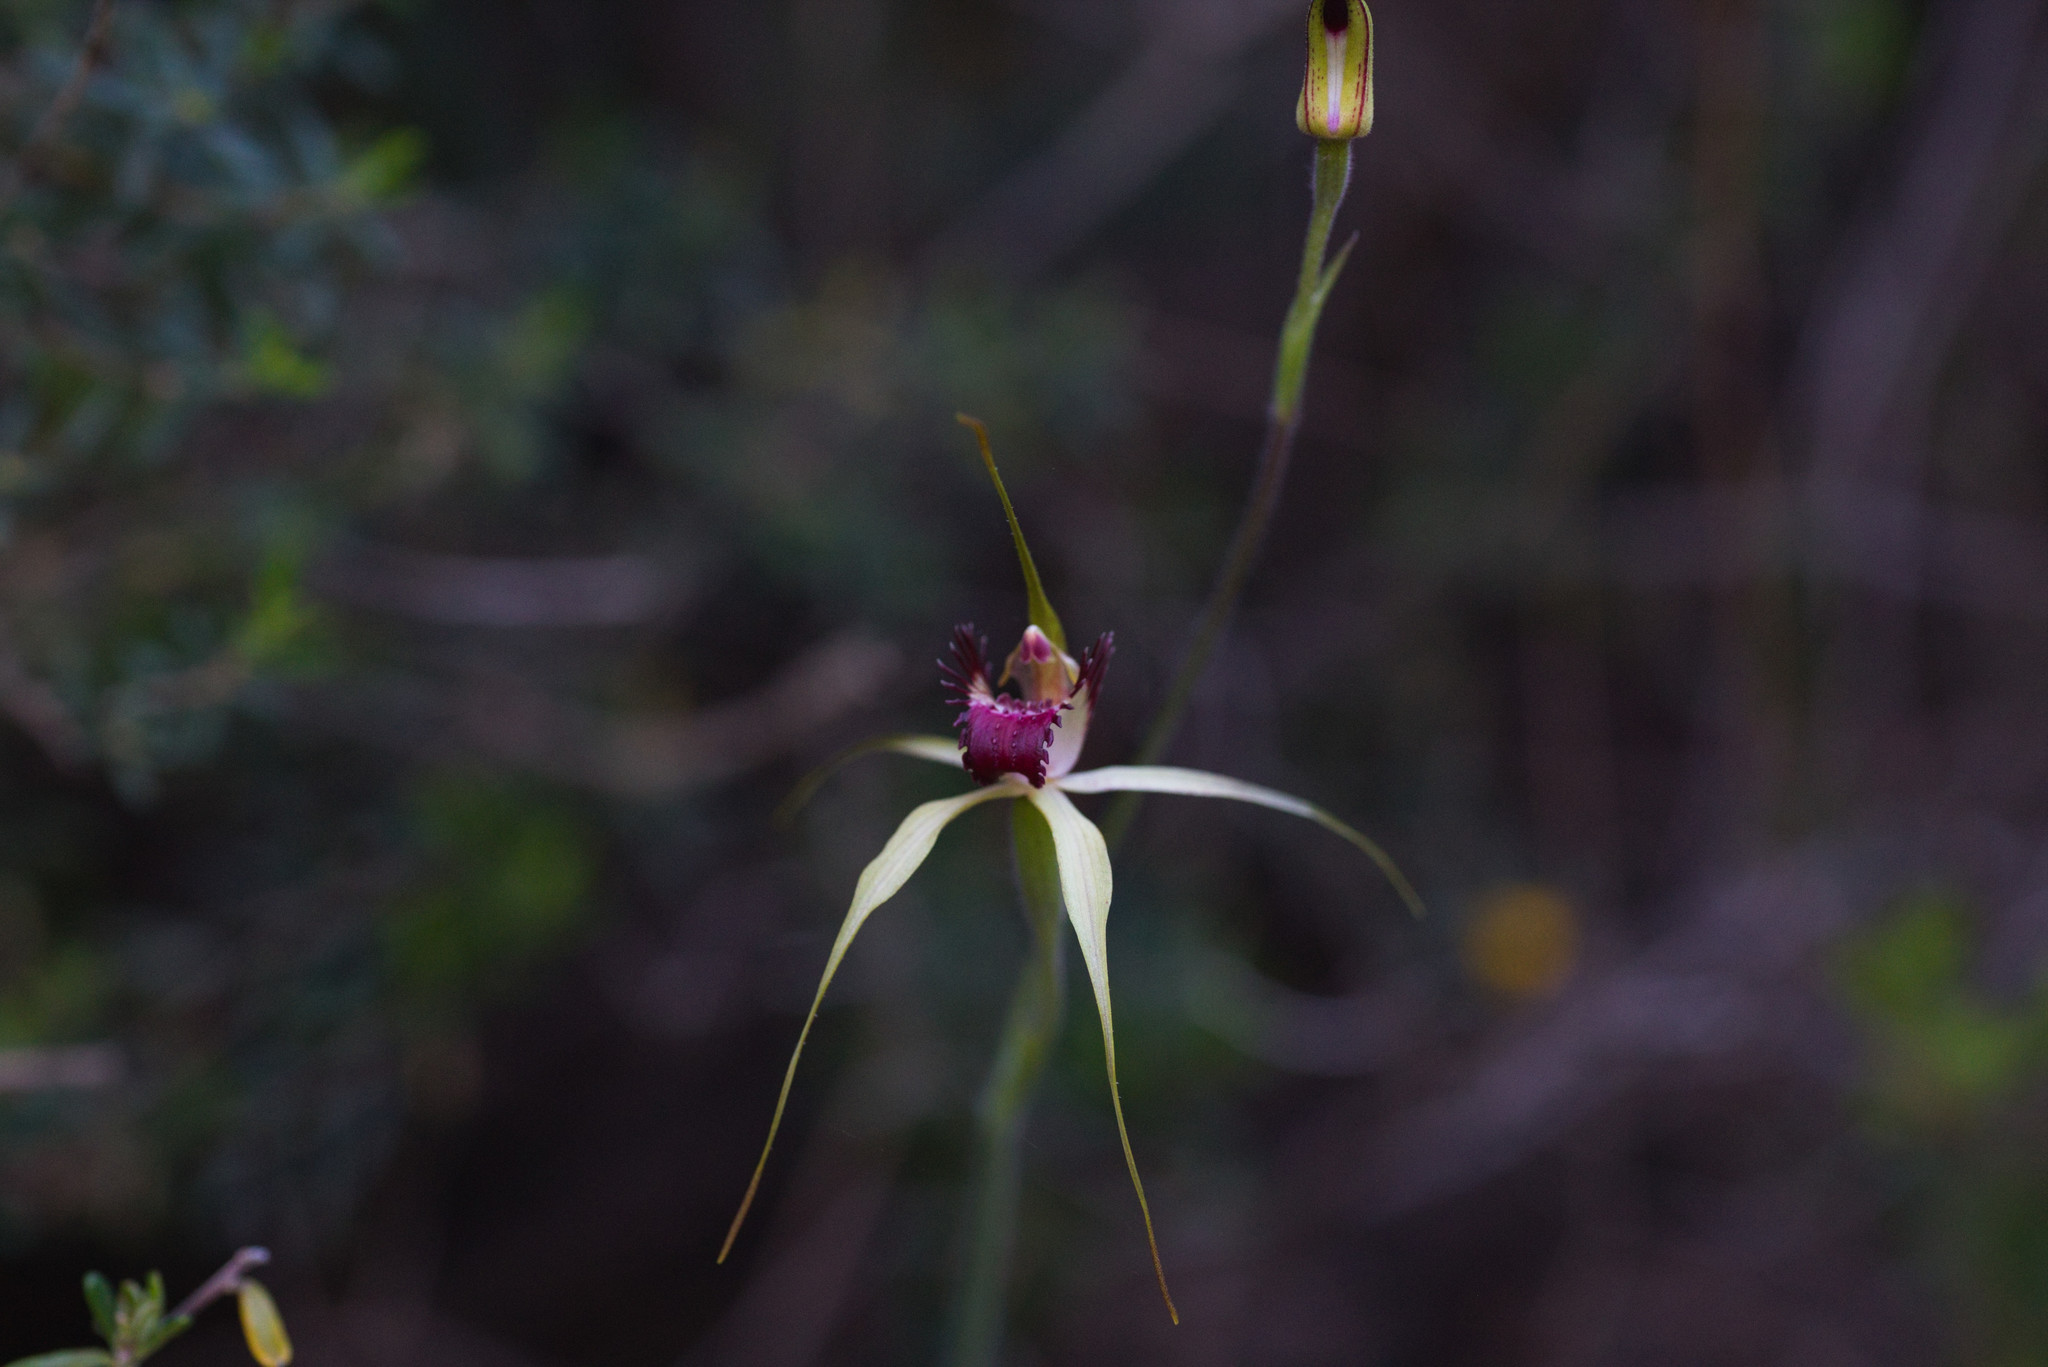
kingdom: Plantae
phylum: Tracheophyta
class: Liliopsida
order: Asparagales
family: Orchidaceae
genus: Caladenia
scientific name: Caladenia viridescens
